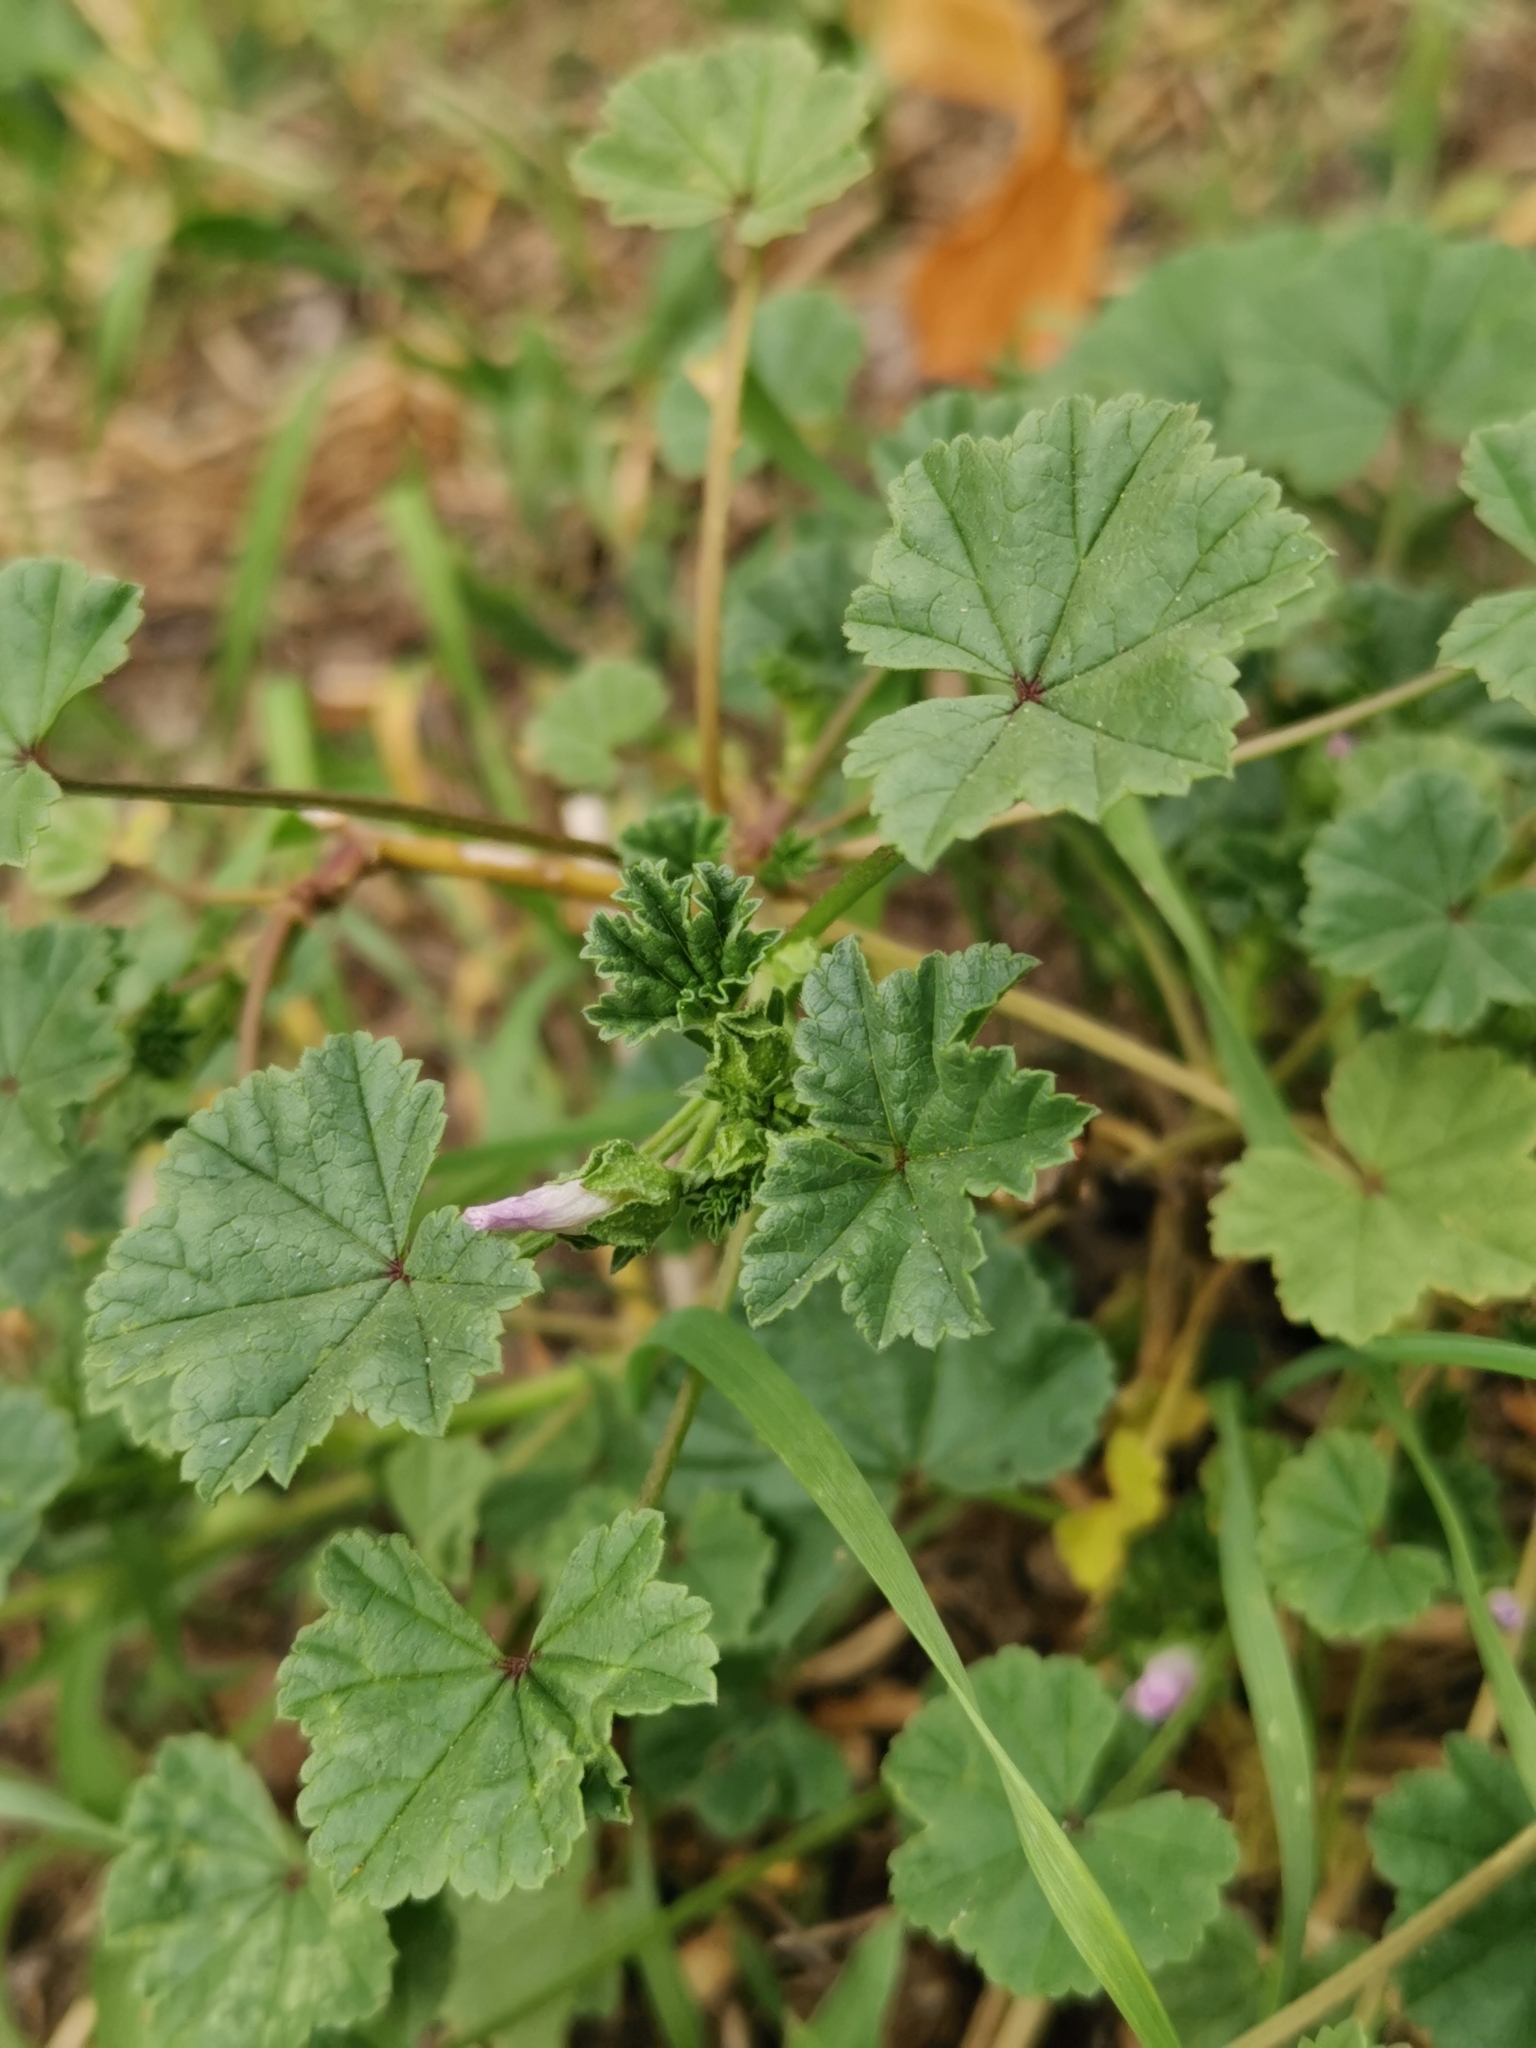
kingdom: Plantae
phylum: Tracheophyta
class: Magnoliopsida
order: Malvales
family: Malvaceae
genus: Malva
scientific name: Malva neglecta
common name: Common mallow
